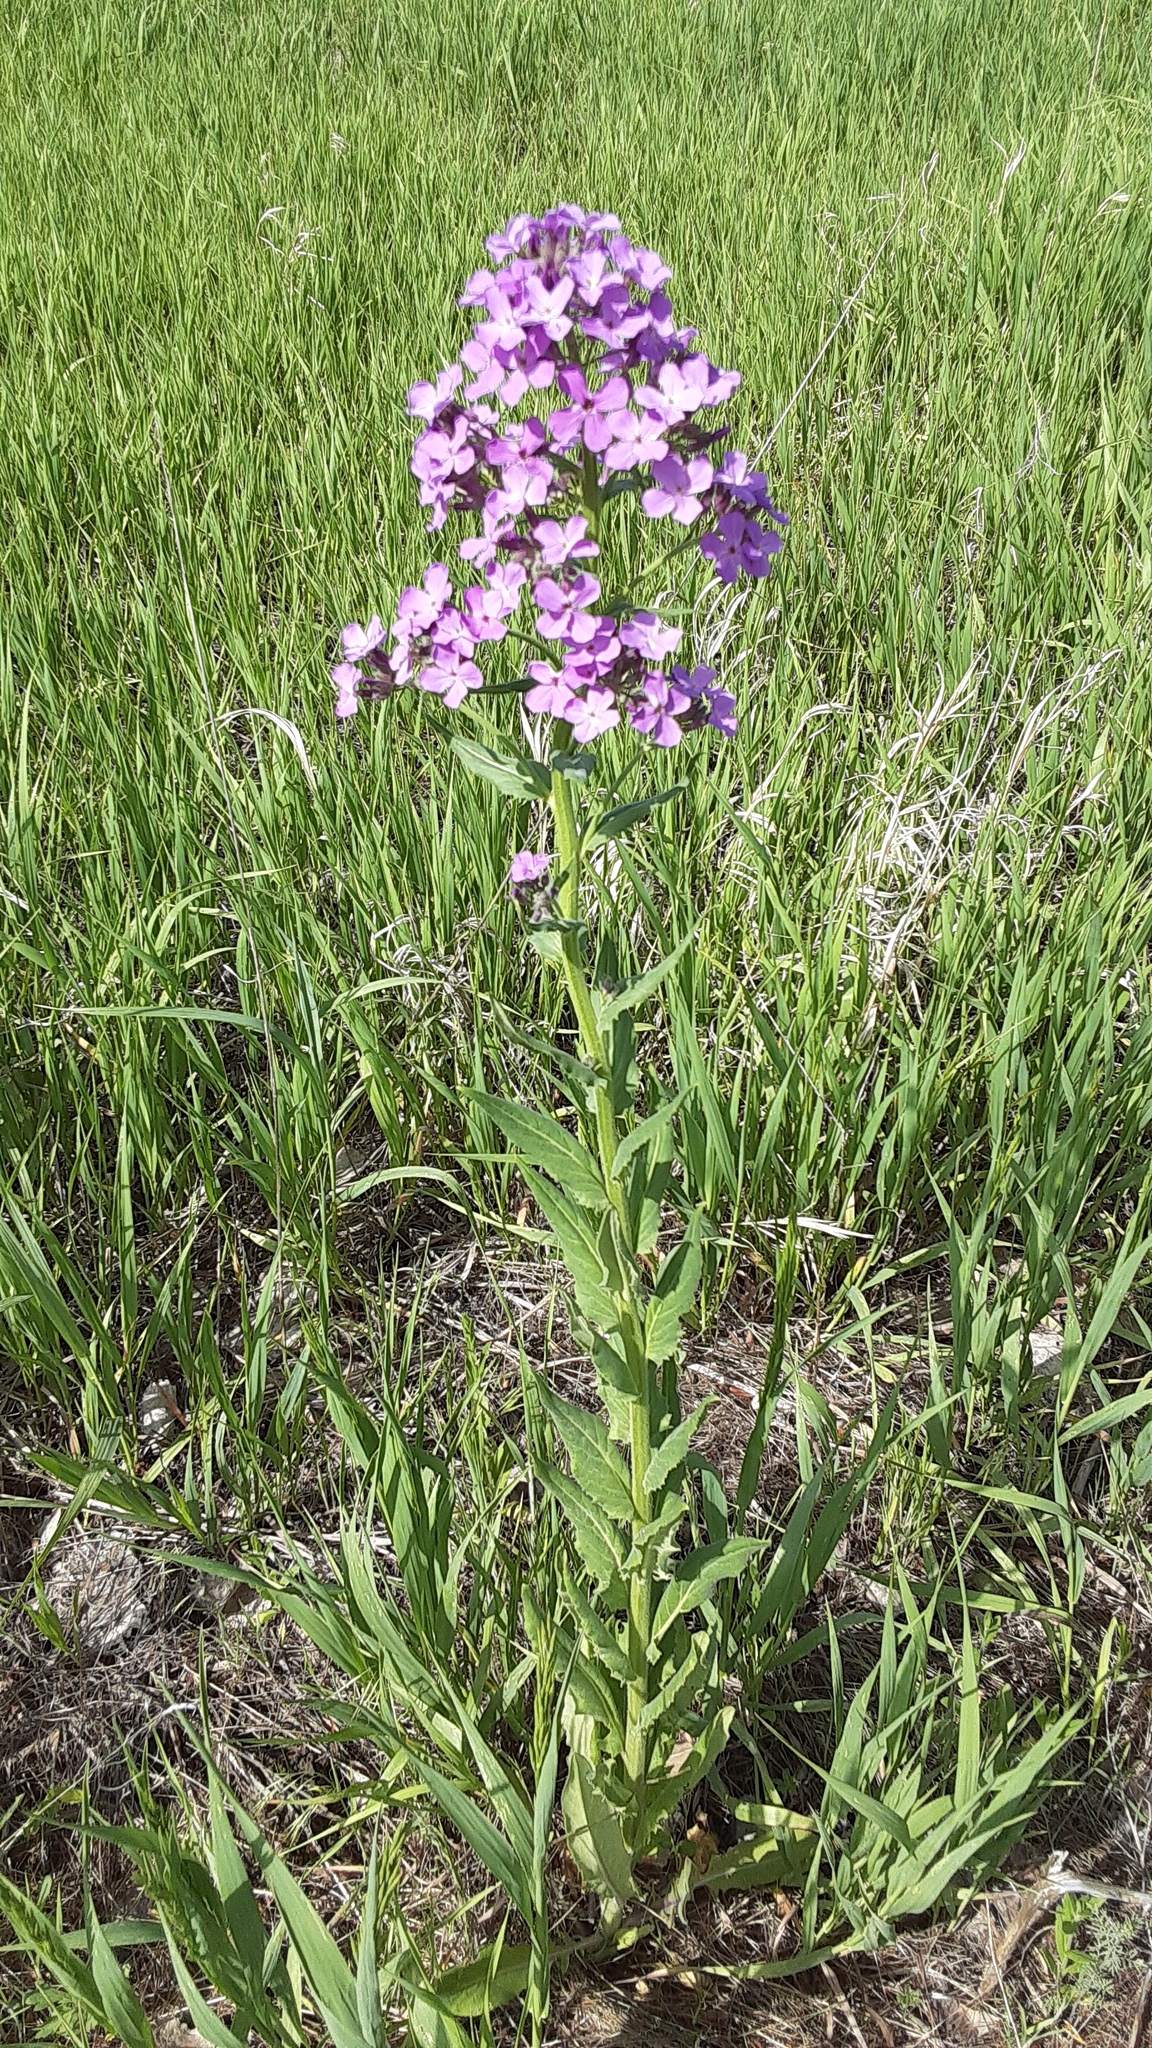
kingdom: Plantae
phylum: Tracheophyta
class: Magnoliopsida
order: Brassicales
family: Brassicaceae
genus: Hesperis
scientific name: Hesperis matronalis
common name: Dame's-violet
